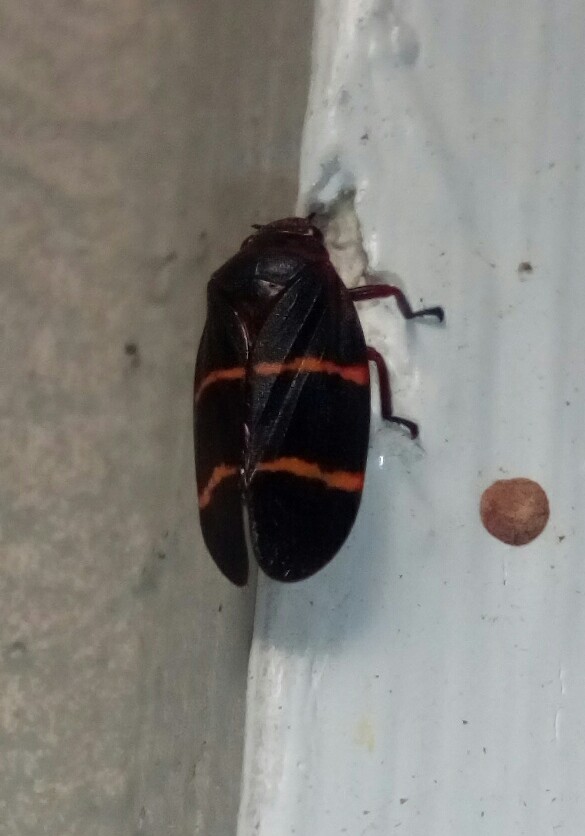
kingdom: Animalia
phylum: Arthropoda
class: Insecta
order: Hemiptera
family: Cercopidae
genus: Prosapia
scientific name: Prosapia bicincta
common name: Twolined spittlebug
